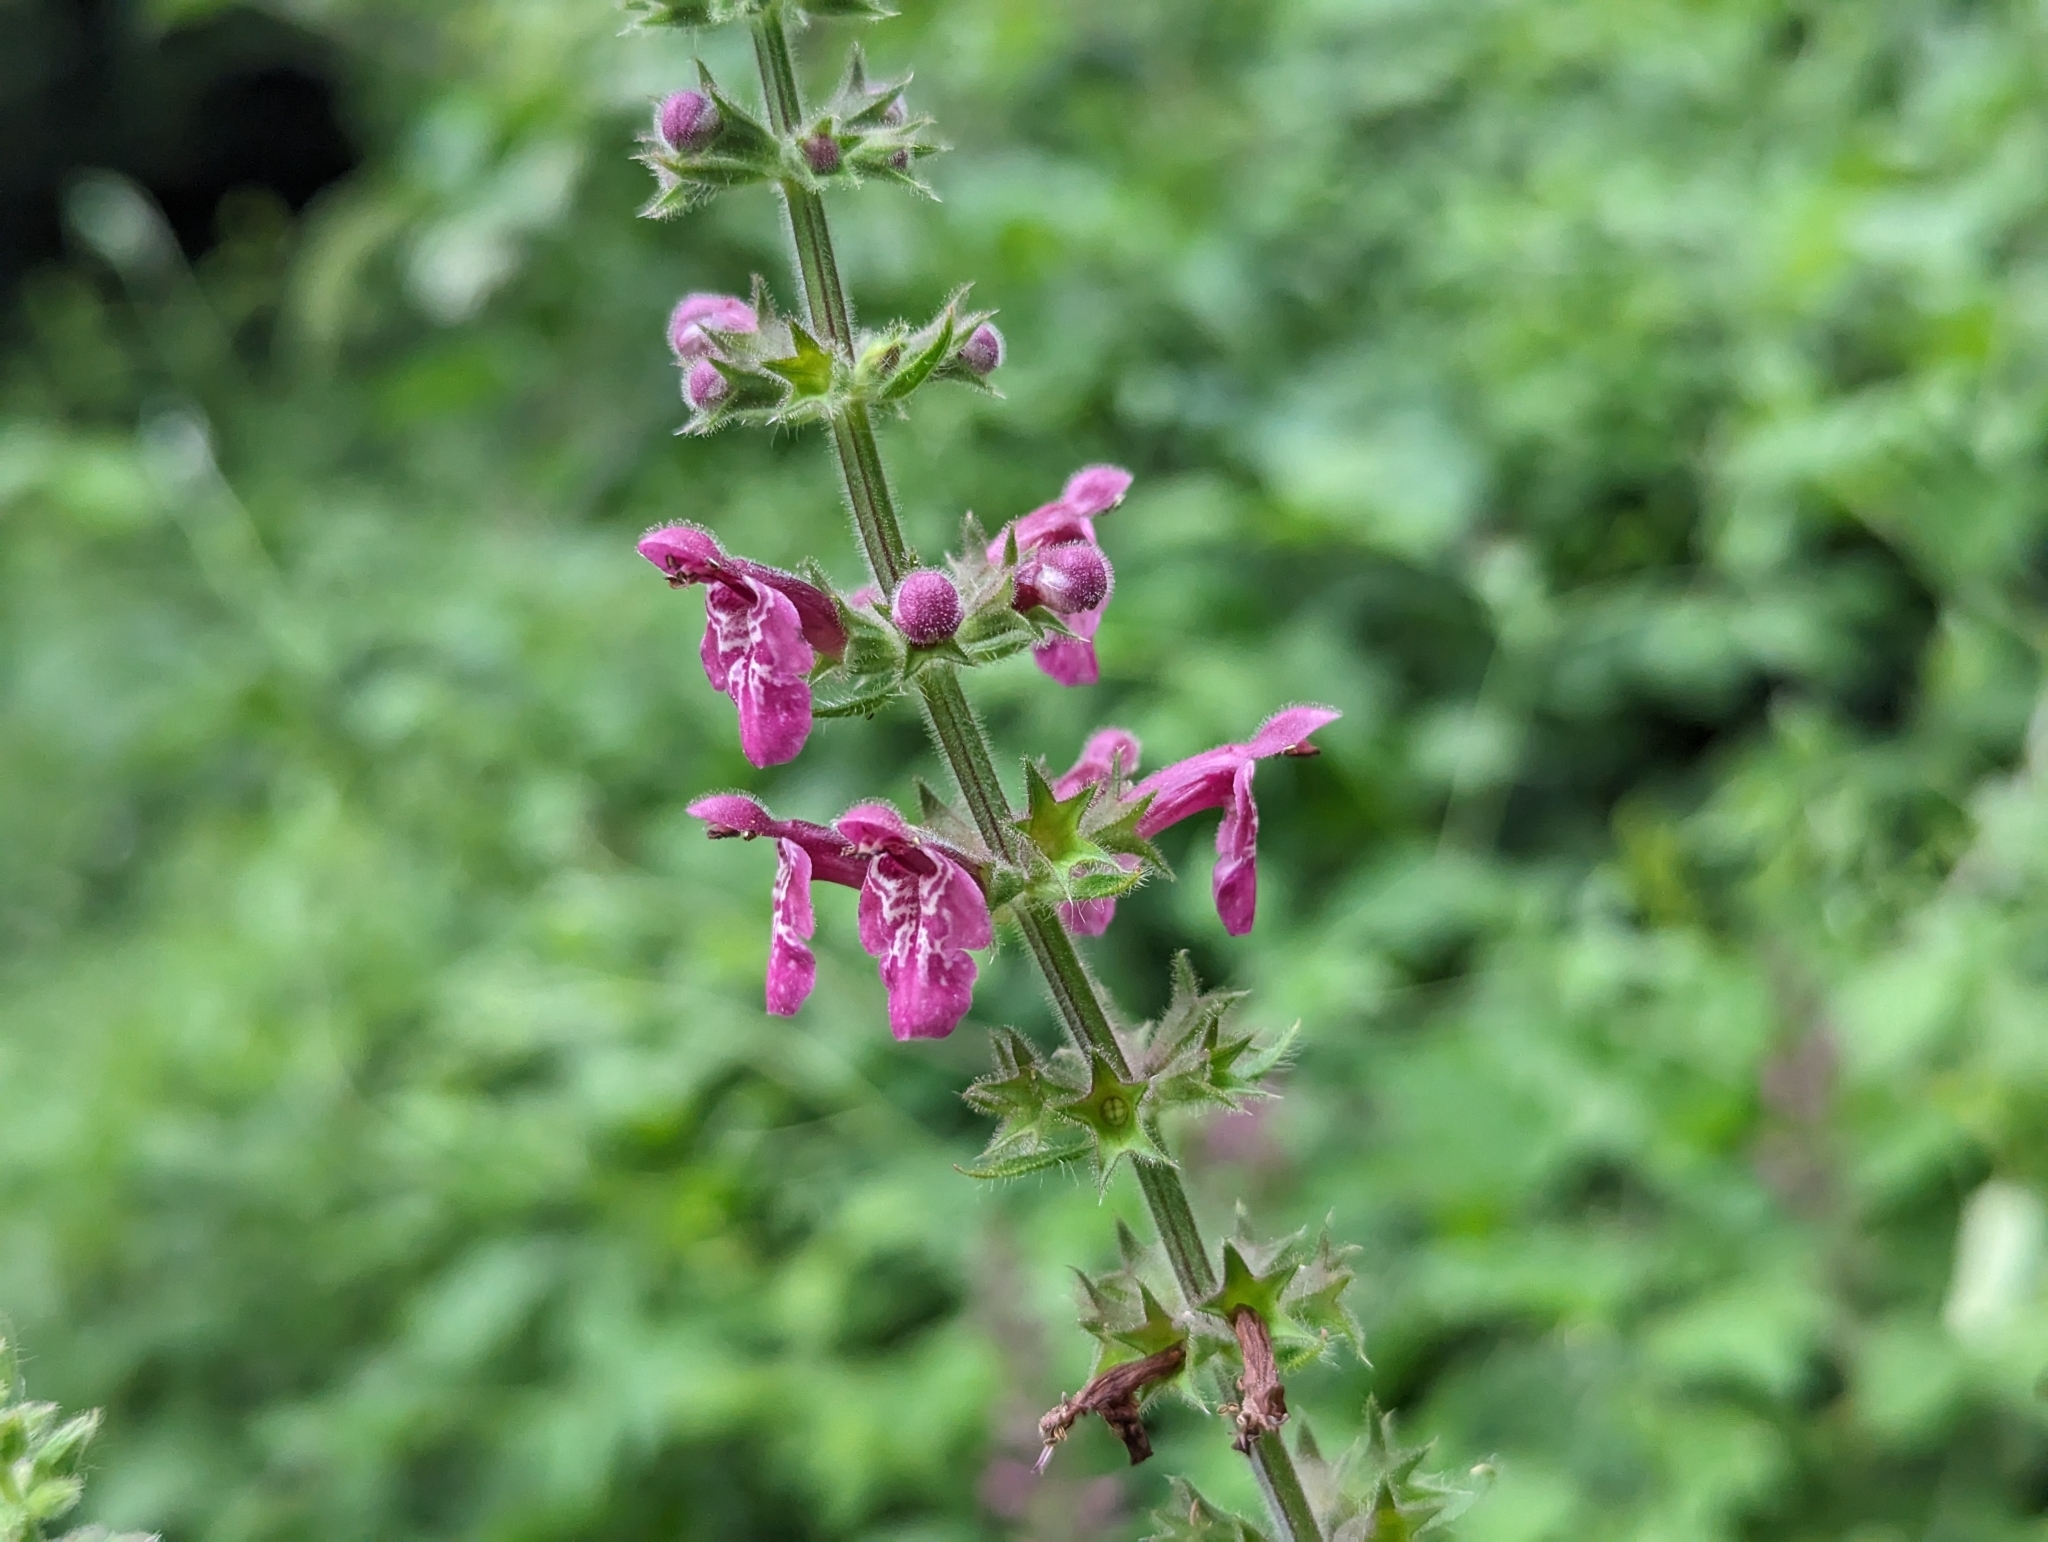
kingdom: Plantae
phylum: Tracheophyta
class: Magnoliopsida
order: Lamiales
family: Lamiaceae
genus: Stachys
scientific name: Stachys sylvatica
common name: Hedge woundwort
